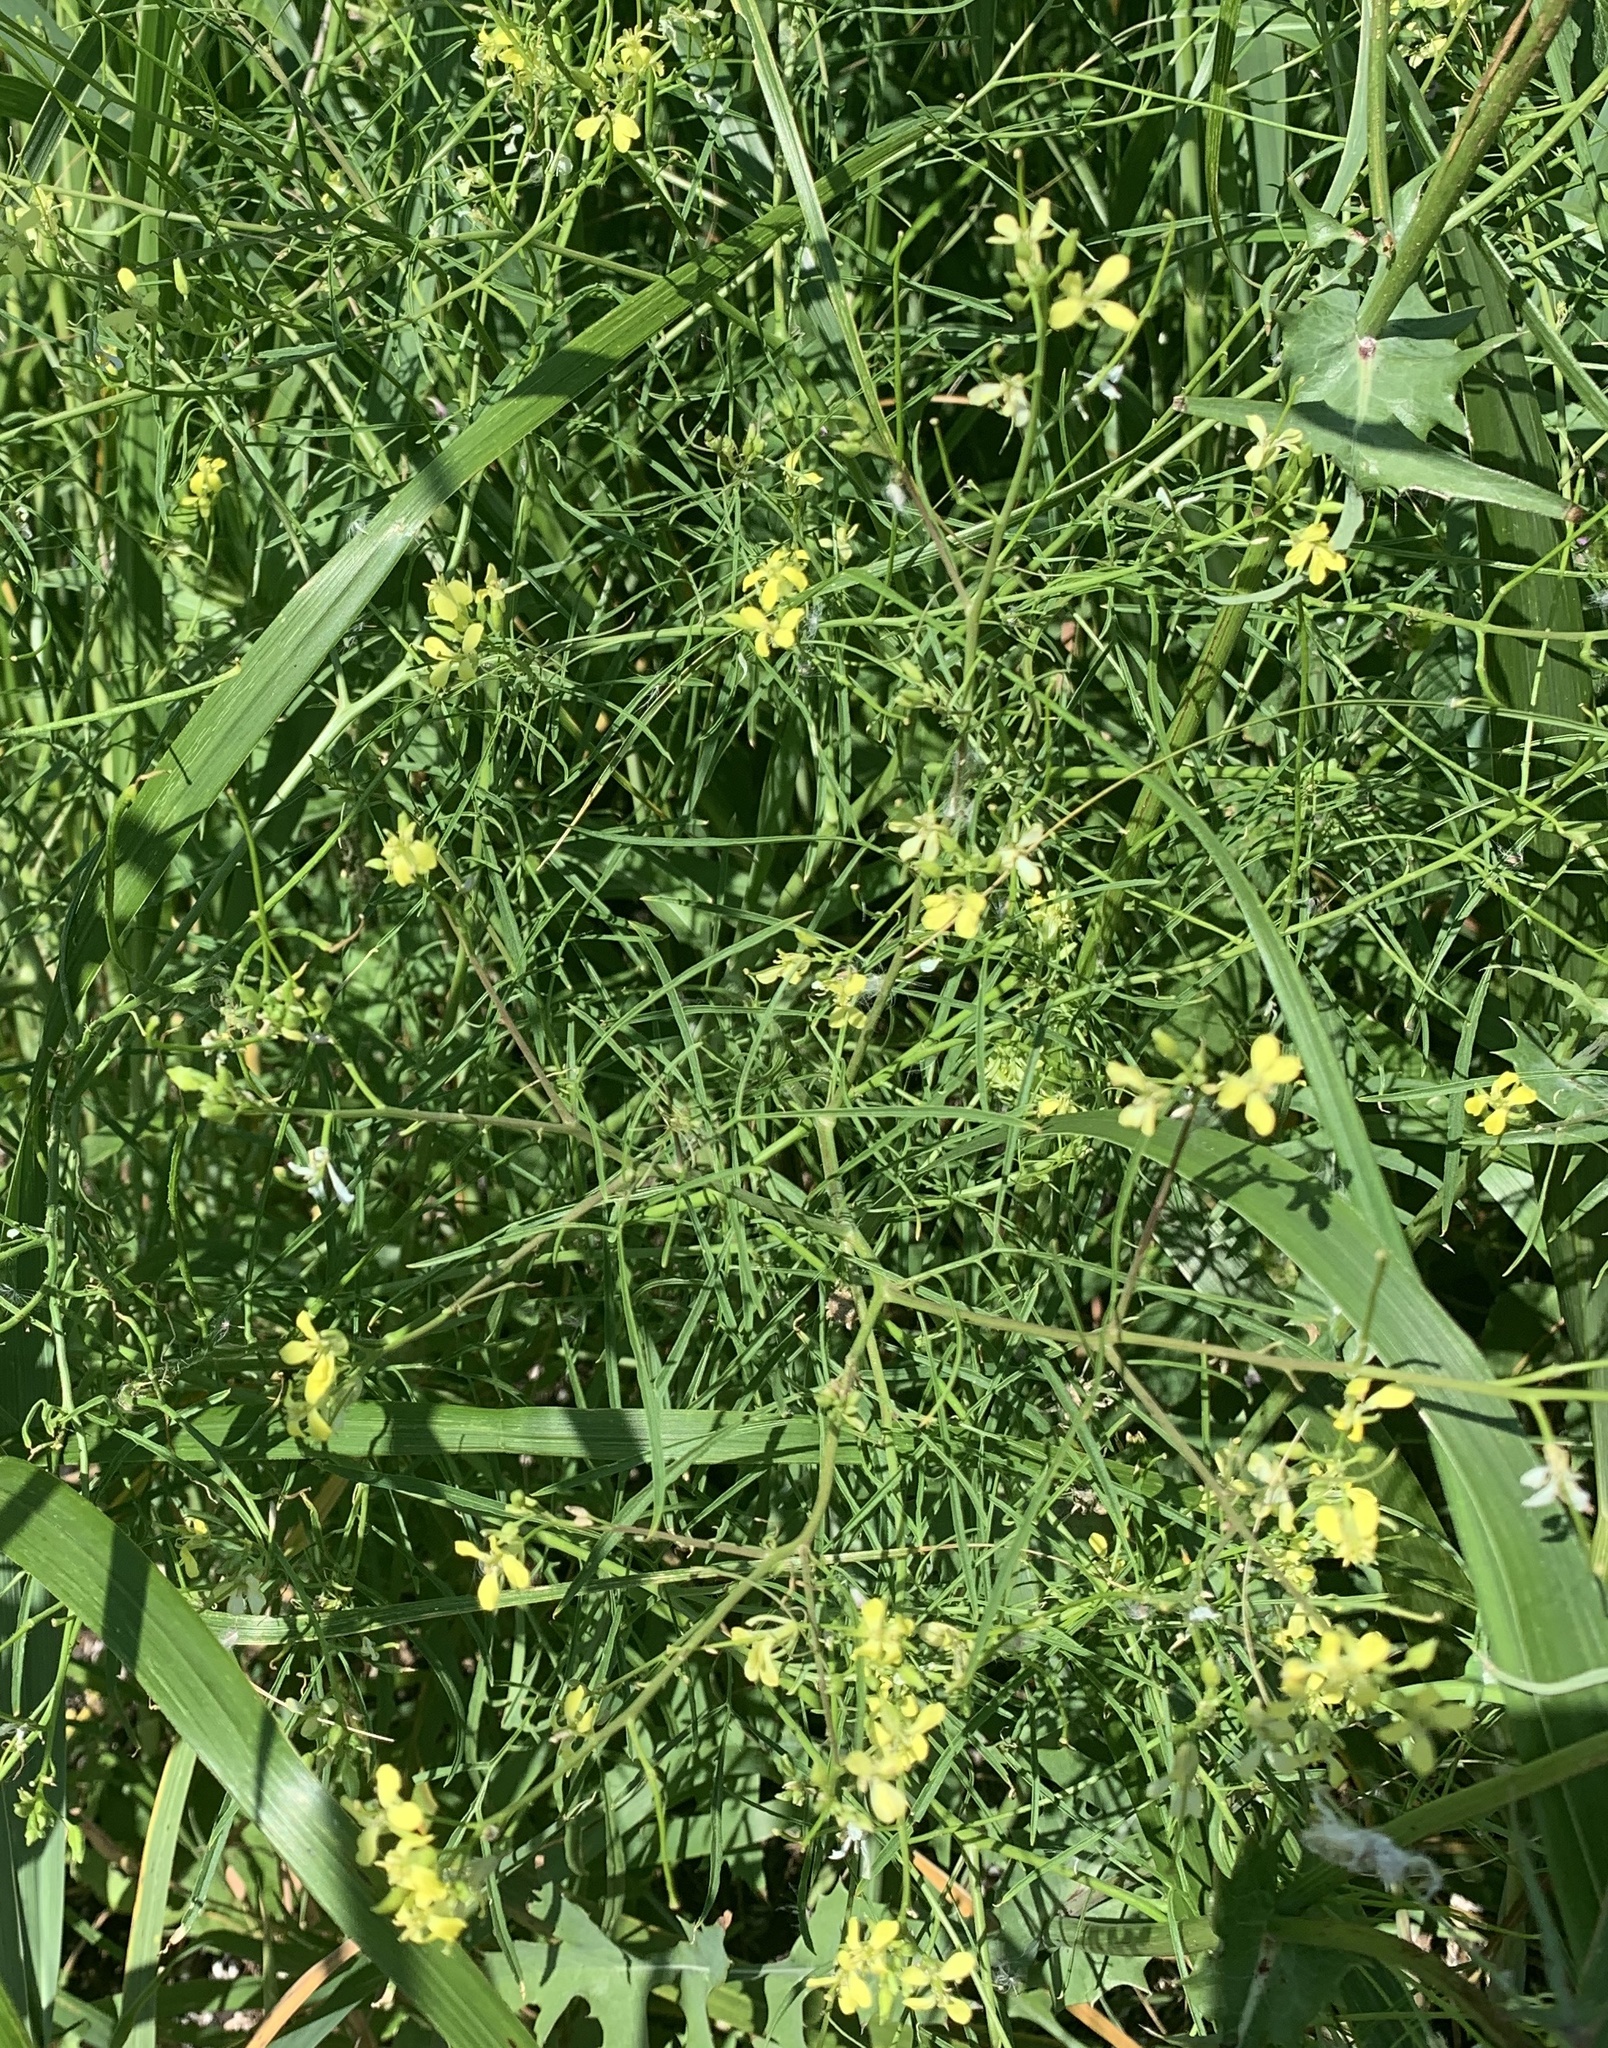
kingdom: Plantae
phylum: Tracheophyta
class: Magnoliopsida
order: Brassicales
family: Brassicaceae
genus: Sisymbrium
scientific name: Sisymbrium altissimum
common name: Tall rocket
